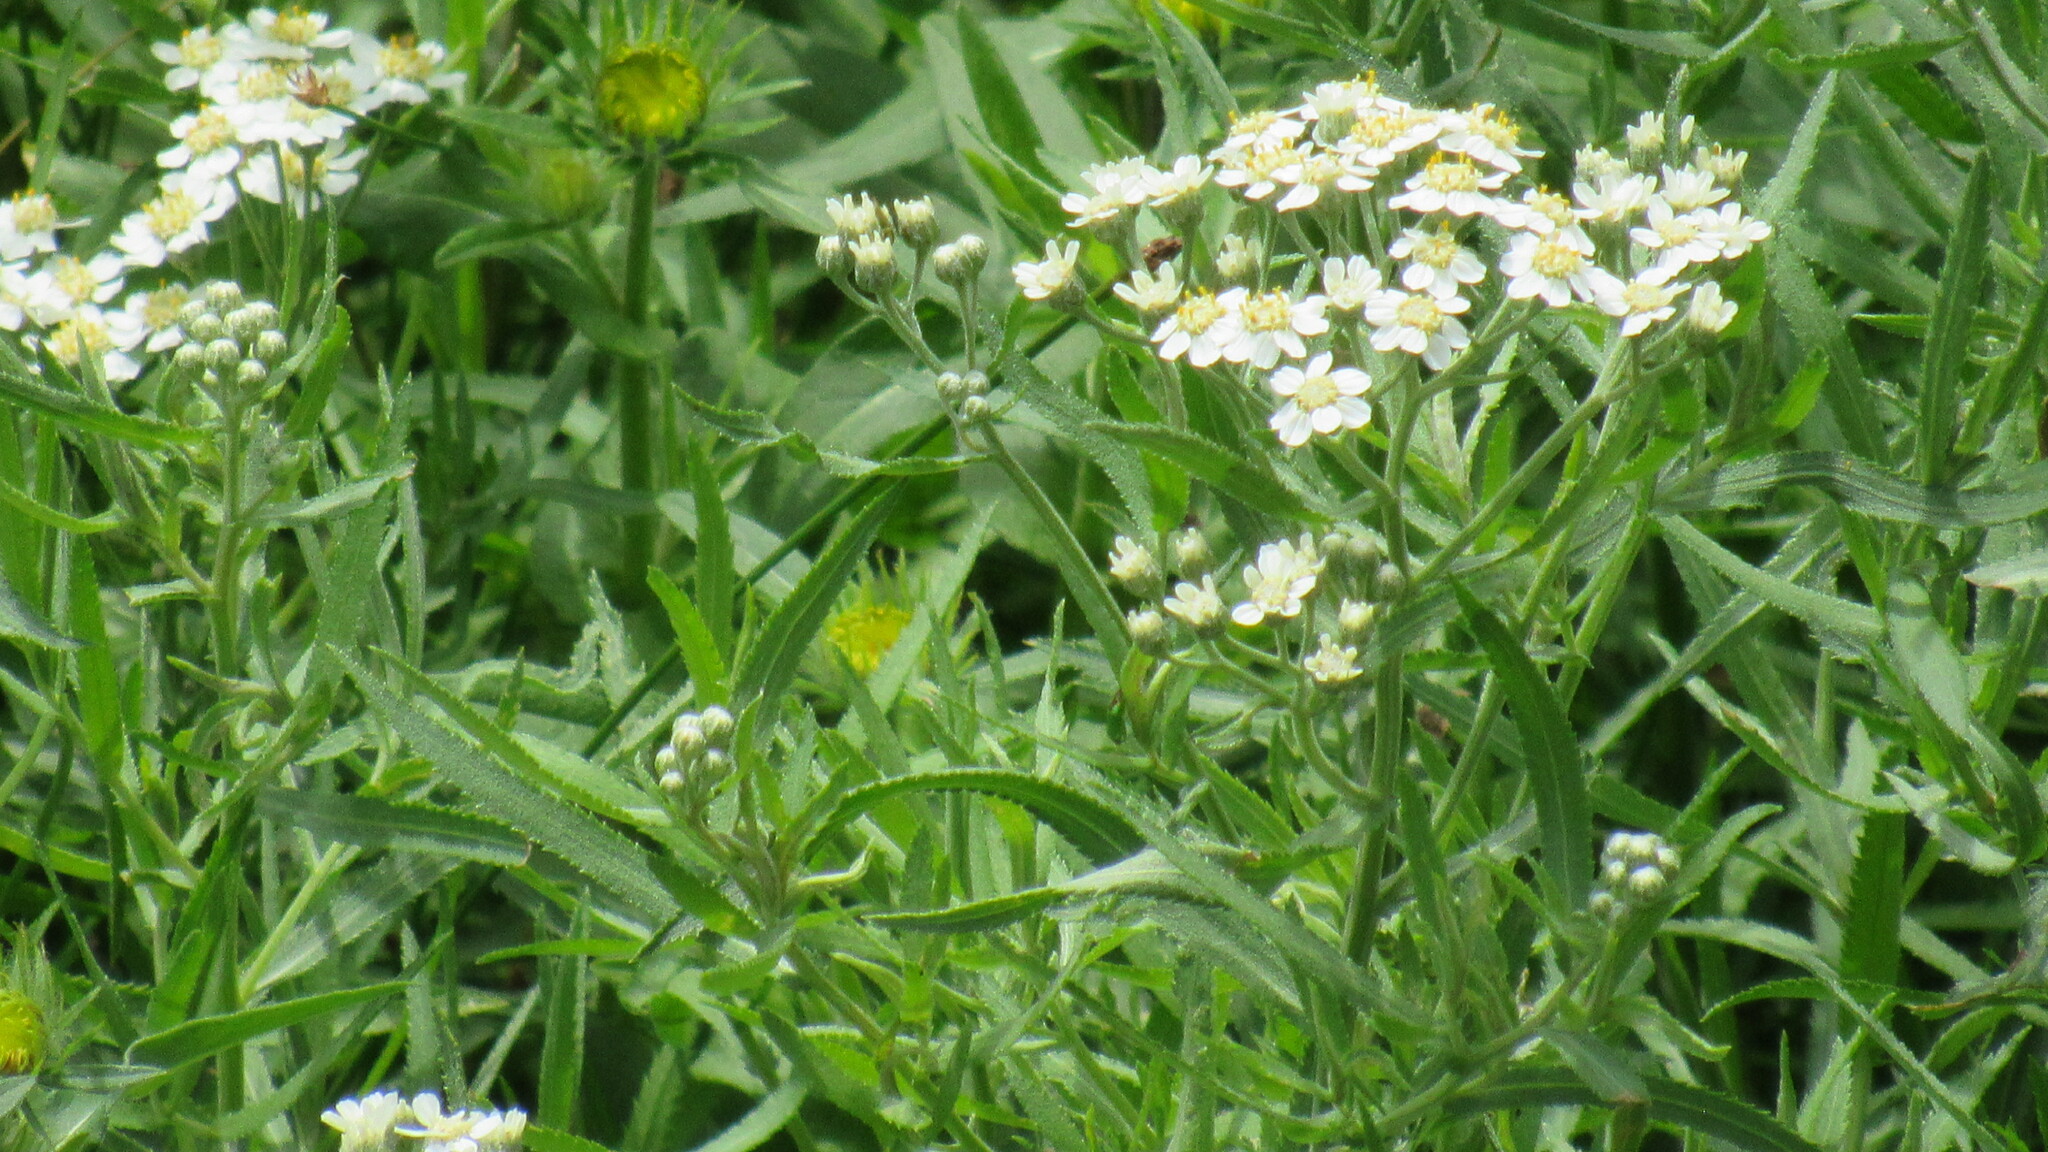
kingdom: Plantae
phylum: Tracheophyta
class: Magnoliopsida
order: Asterales
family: Asteraceae
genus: Achillea
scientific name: Achillea salicifolia
